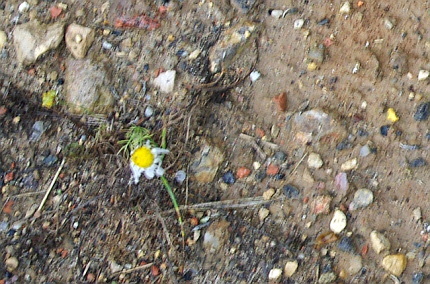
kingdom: Plantae
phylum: Tracheophyta
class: Magnoliopsida
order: Asterales
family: Asteraceae
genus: Tripleurospermum
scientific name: Tripleurospermum inodorum
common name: Scentless mayweed
